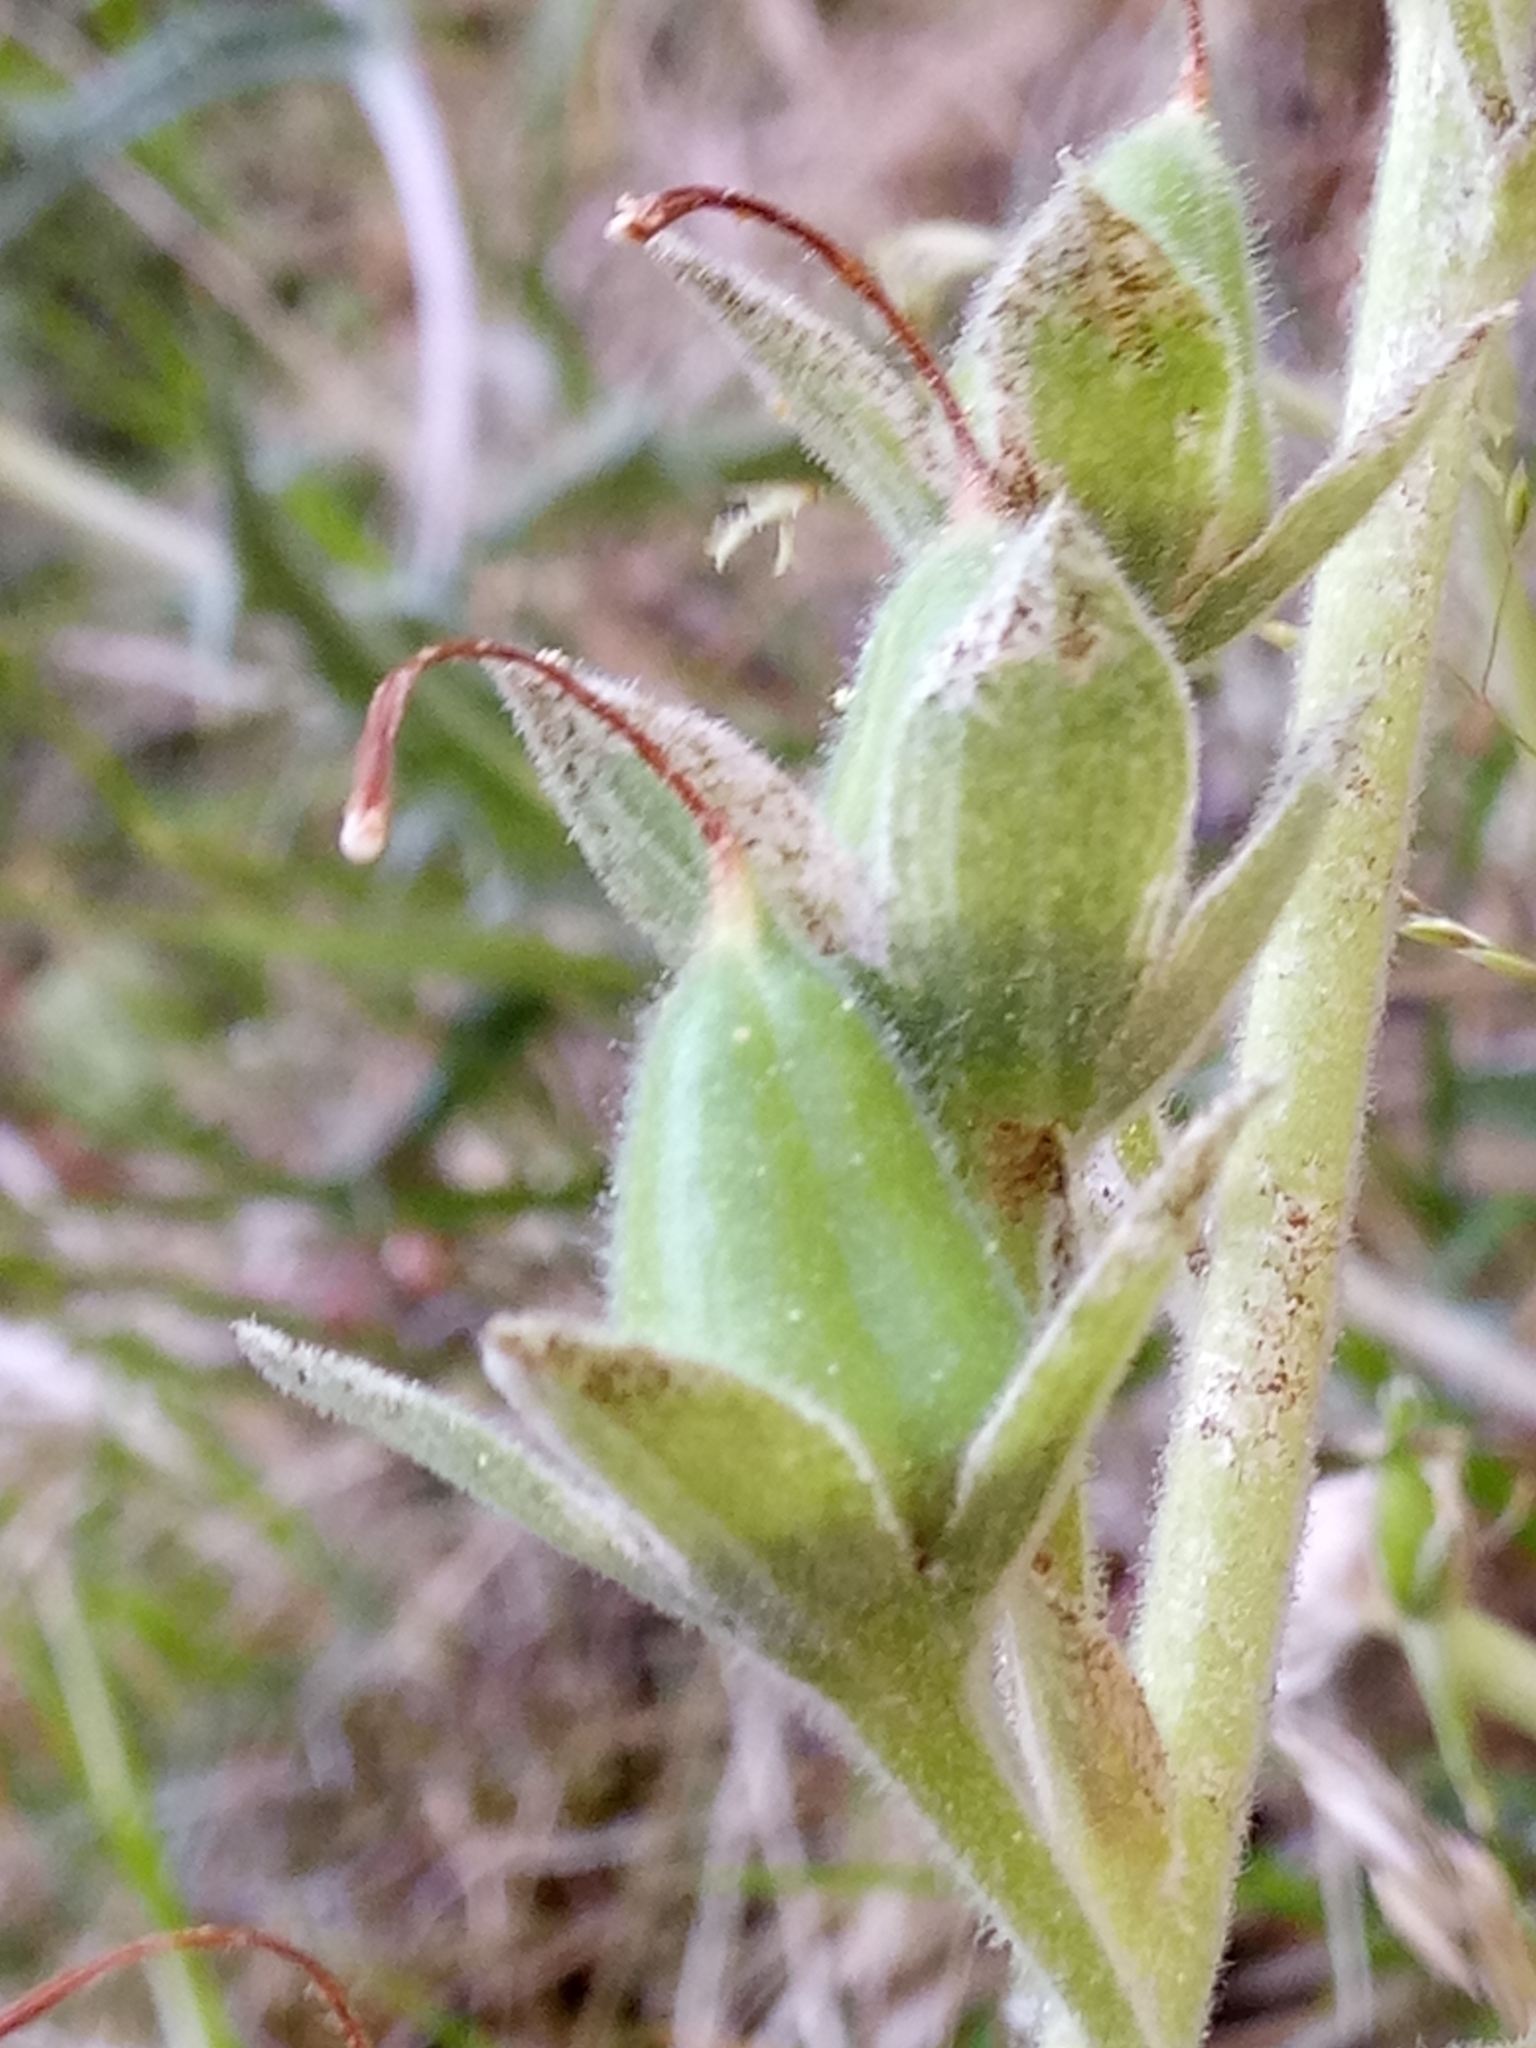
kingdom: Plantae
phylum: Tracheophyta
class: Magnoliopsida
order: Lamiales
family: Plantaginaceae
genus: Digitalis
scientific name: Digitalis purpurea
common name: Foxglove
